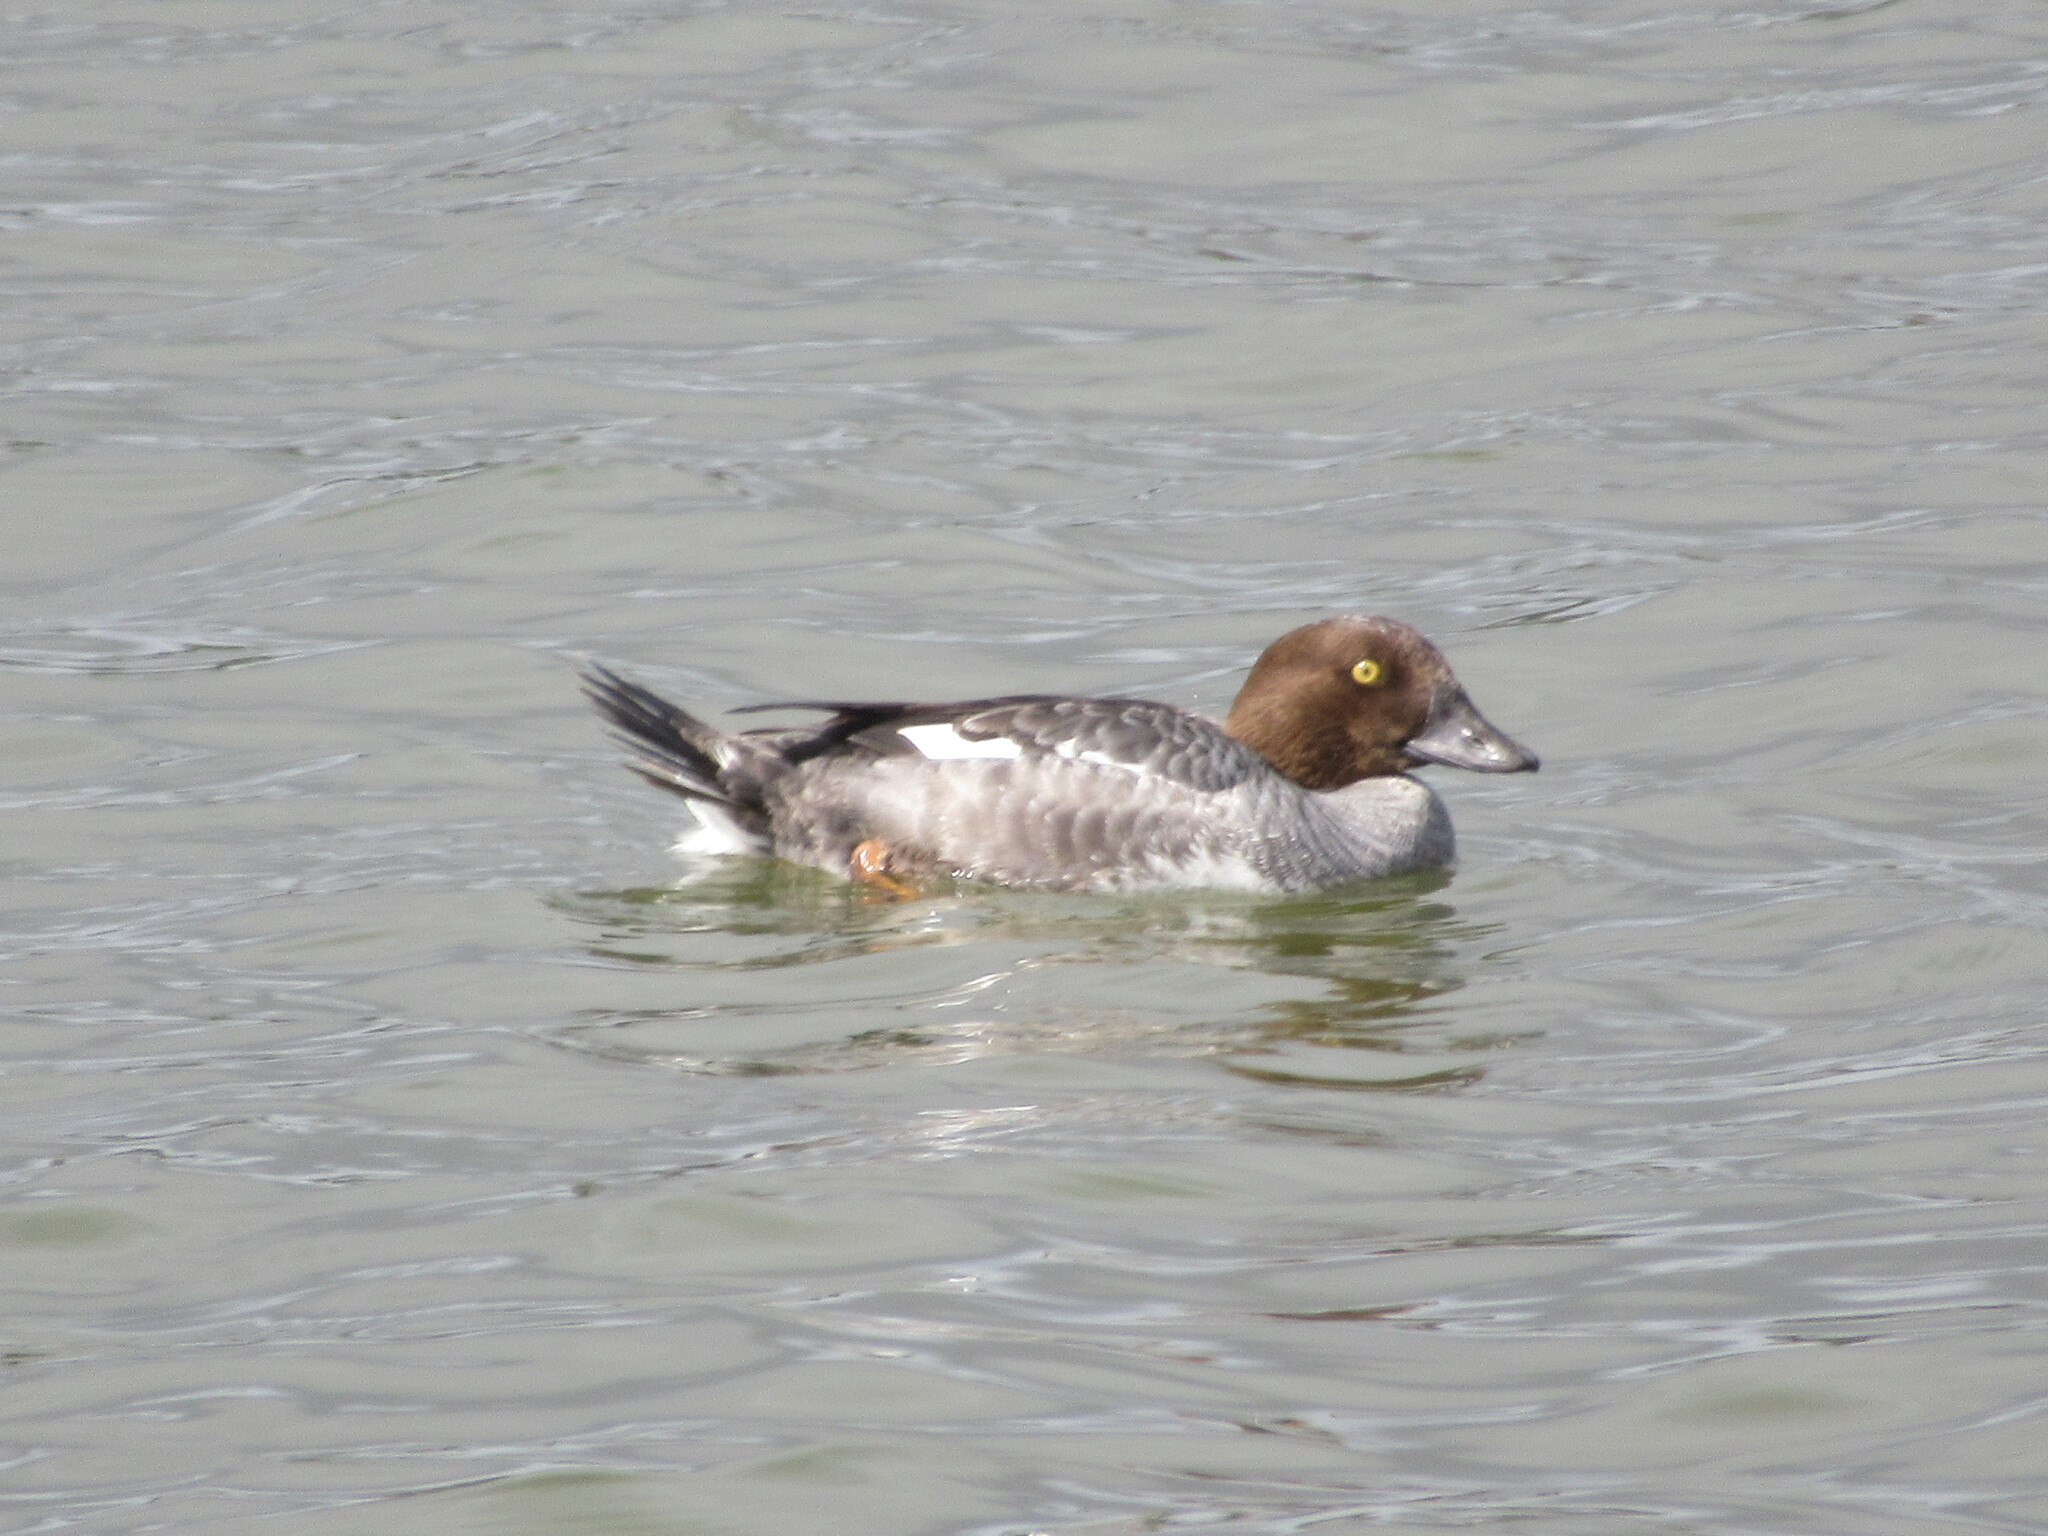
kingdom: Animalia
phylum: Chordata
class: Aves
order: Anseriformes
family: Anatidae
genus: Bucephala
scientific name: Bucephala clangula
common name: Common goldeneye
